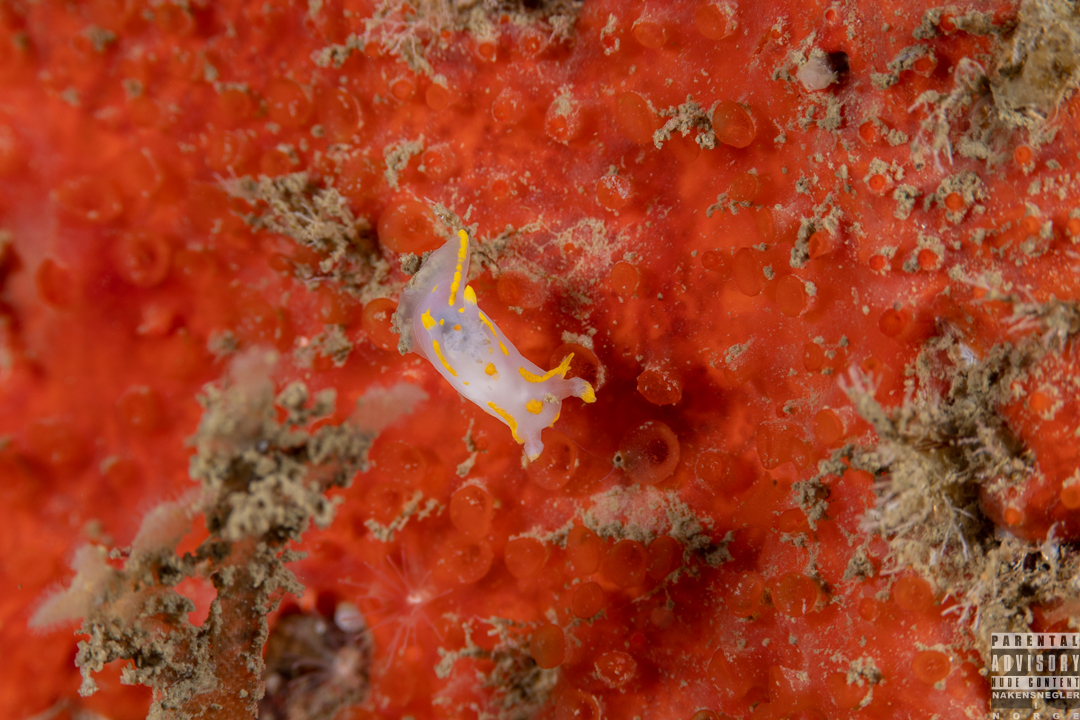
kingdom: Animalia
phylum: Mollusca
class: Gastropoda
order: Nudibranchia
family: Polyceridae
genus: Polycera
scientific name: Polycera quadrilineata
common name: Four-striped polycera
